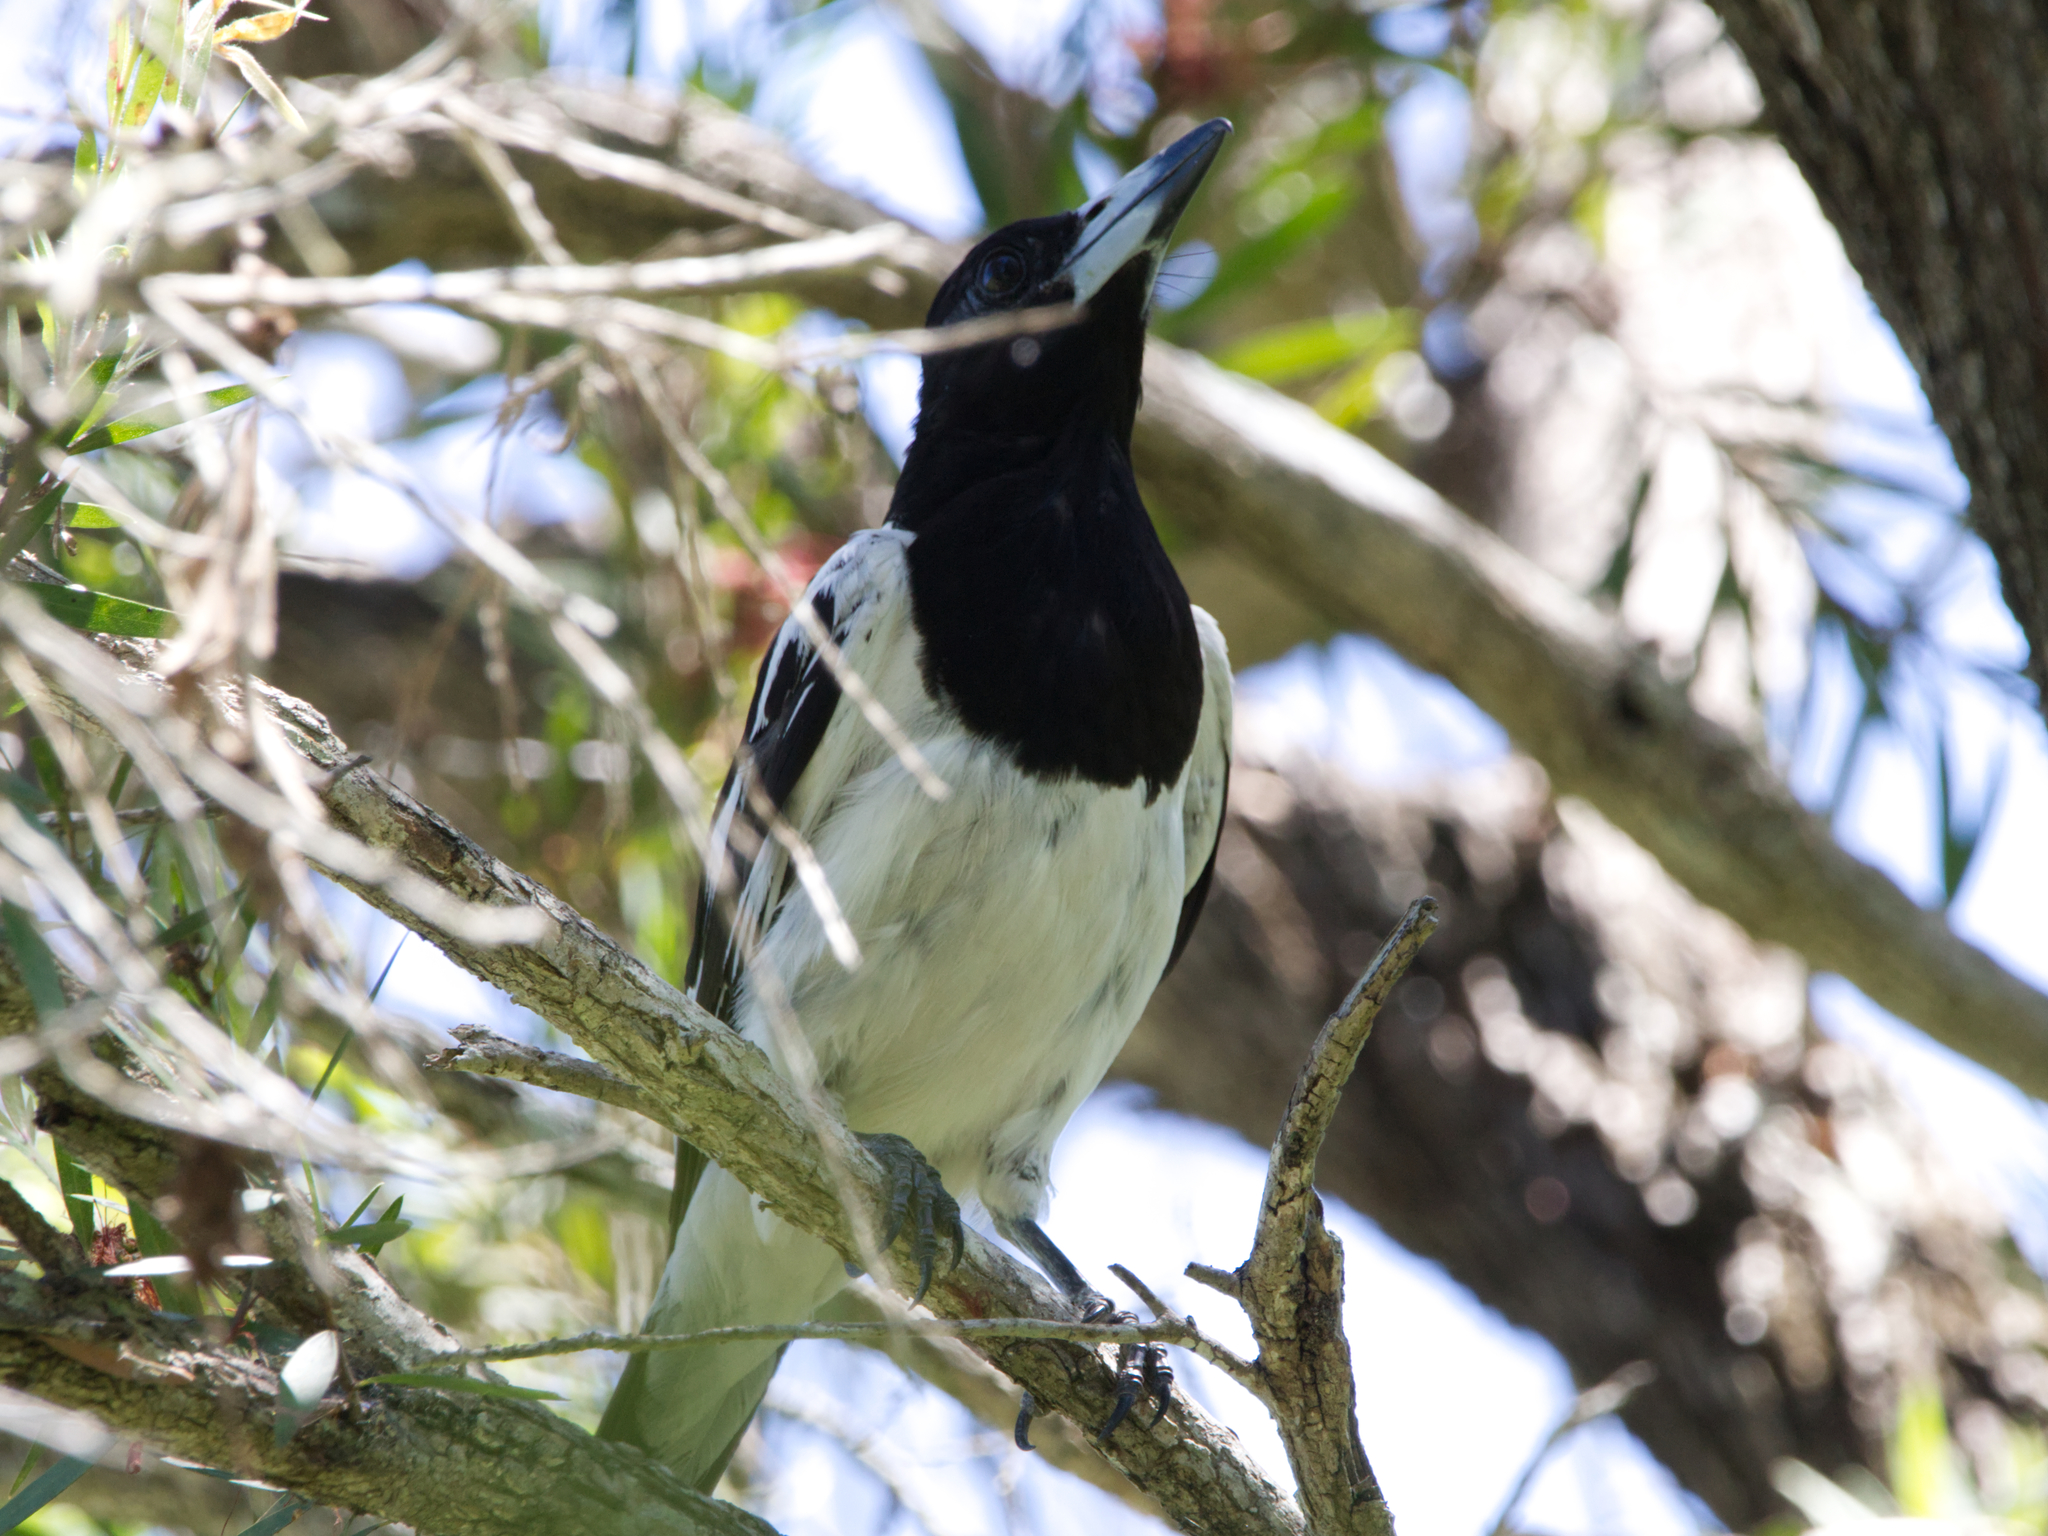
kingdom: Animalia
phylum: Chordata
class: Aves
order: Passeriformes
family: Cracticidae
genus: Cracticus
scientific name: Cracticus nigrogularis
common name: Pied butcherbird
